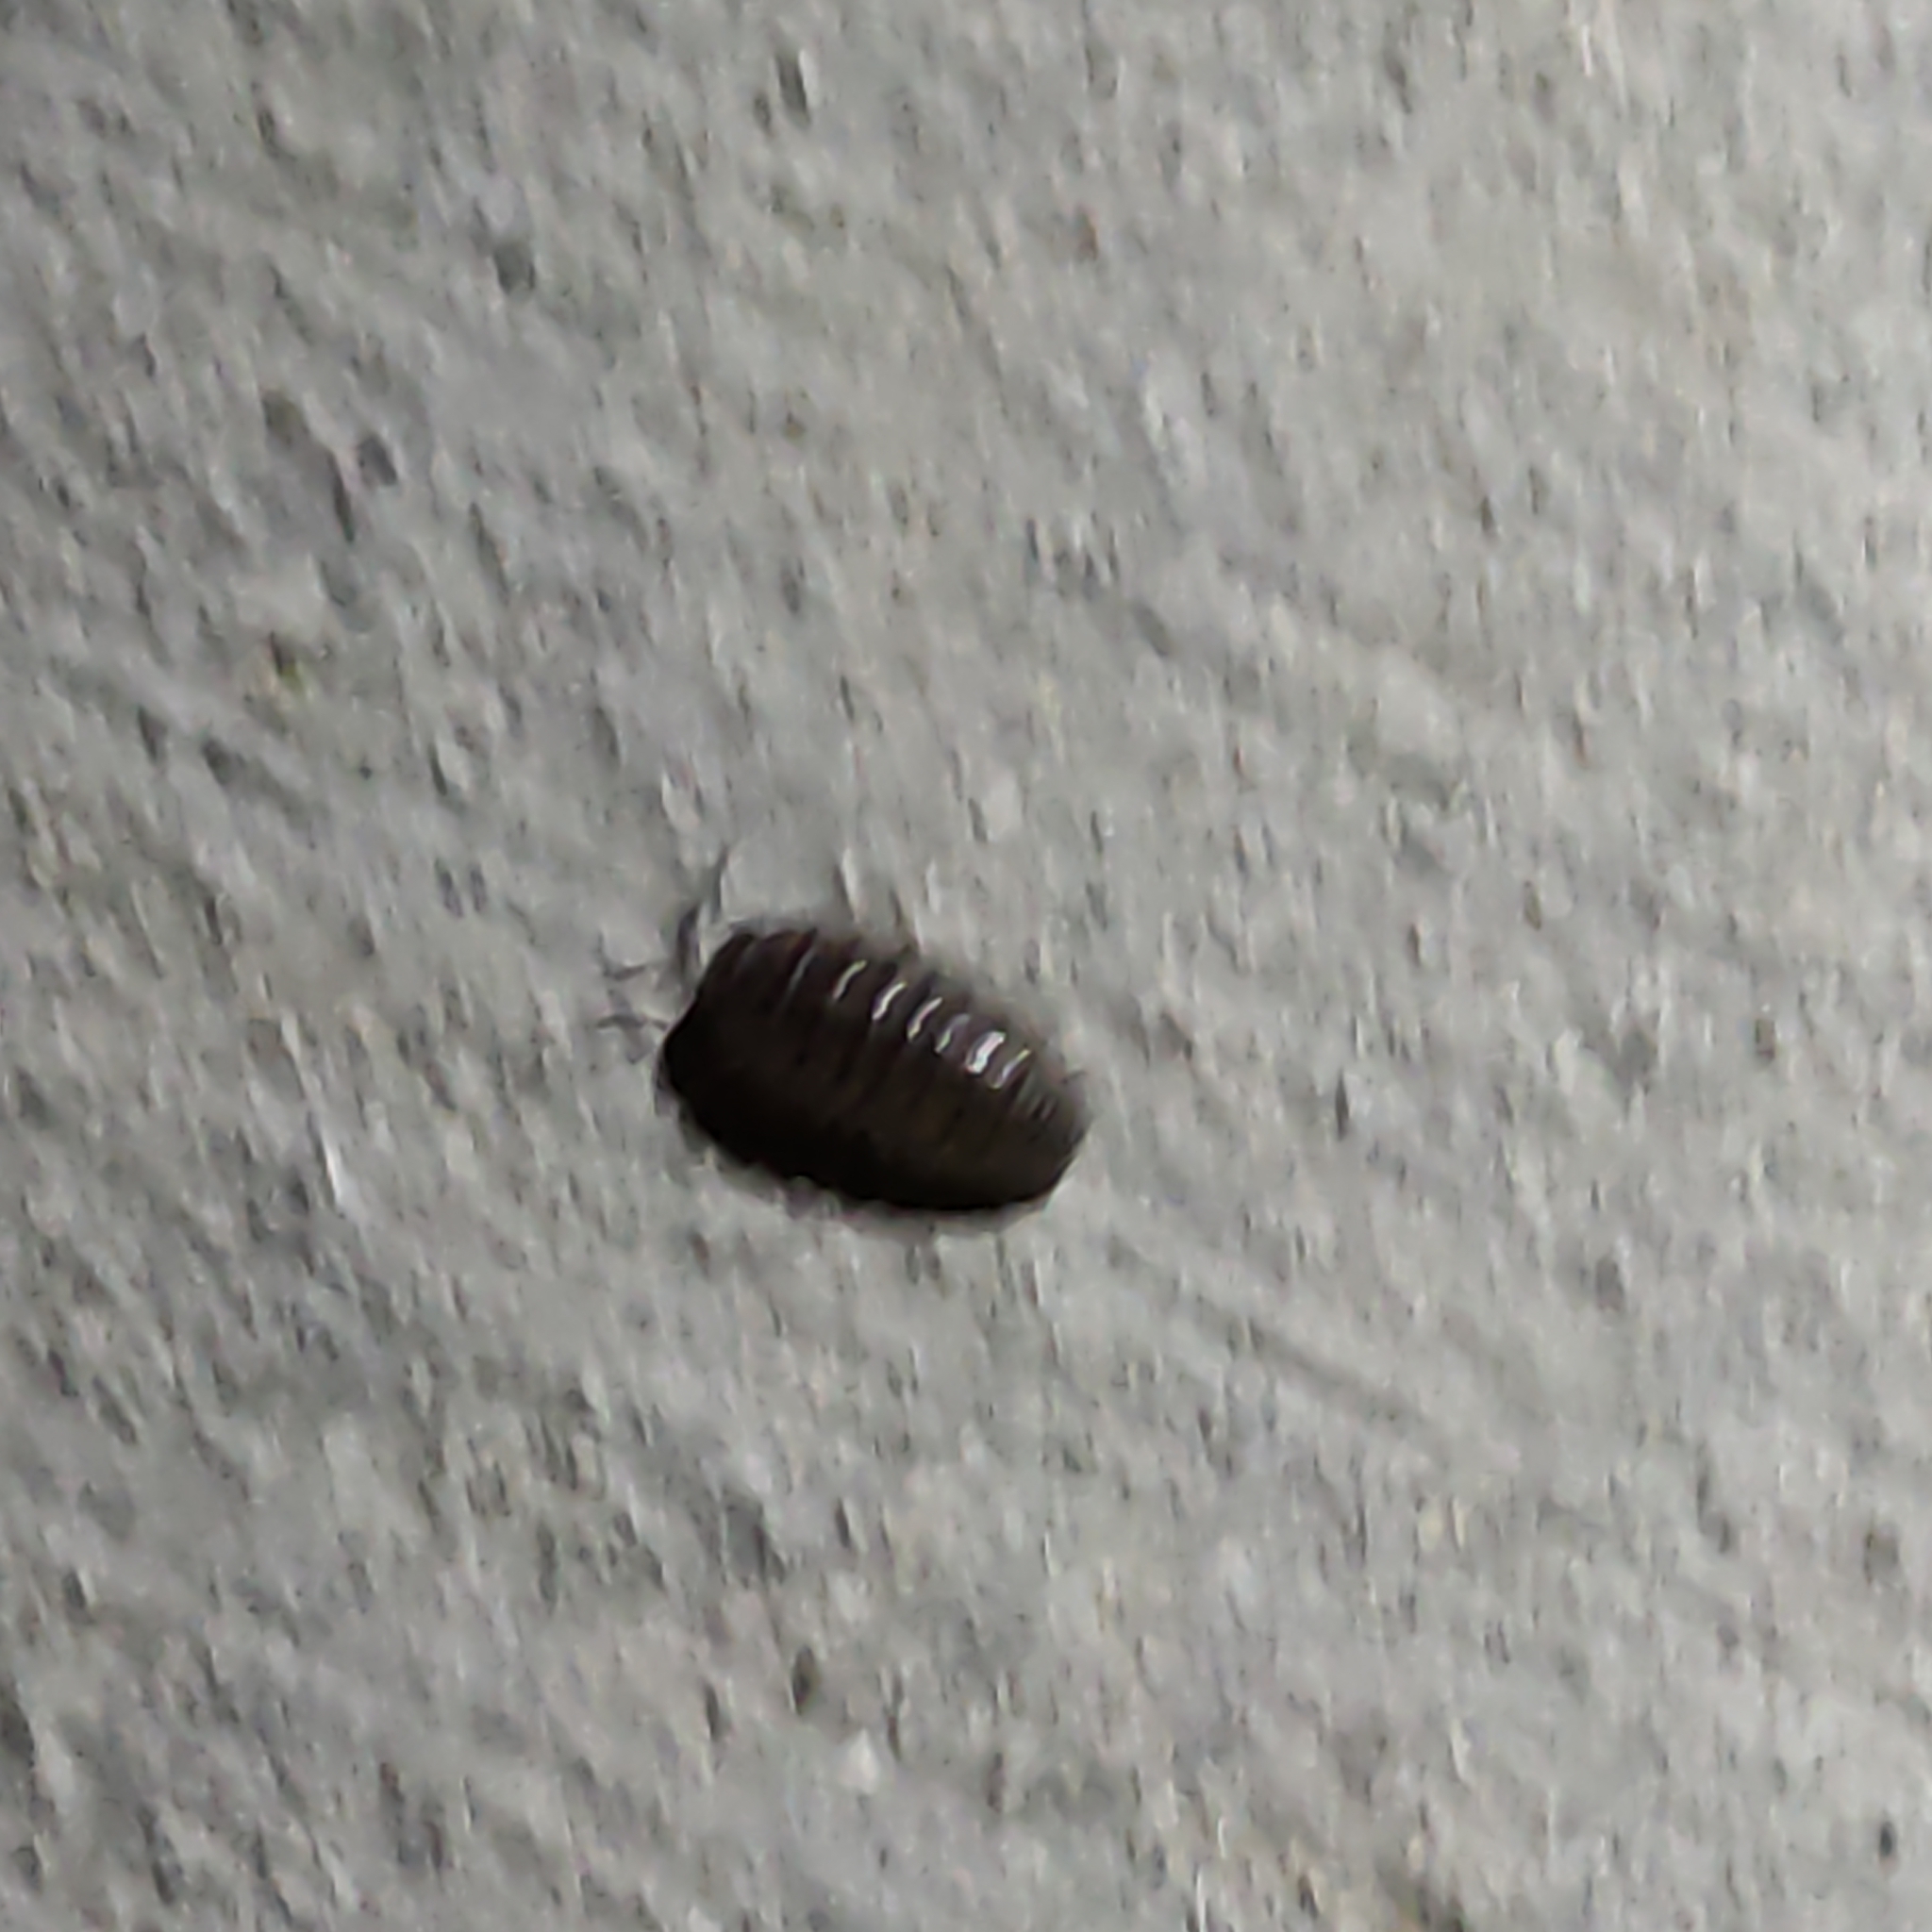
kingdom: Animalia
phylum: Arthropoda
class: Malacostraca
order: Isopoda
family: Armadillidiidae
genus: Armadillidium
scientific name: Armadillidium vulgare
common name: Common pill woodlouse
